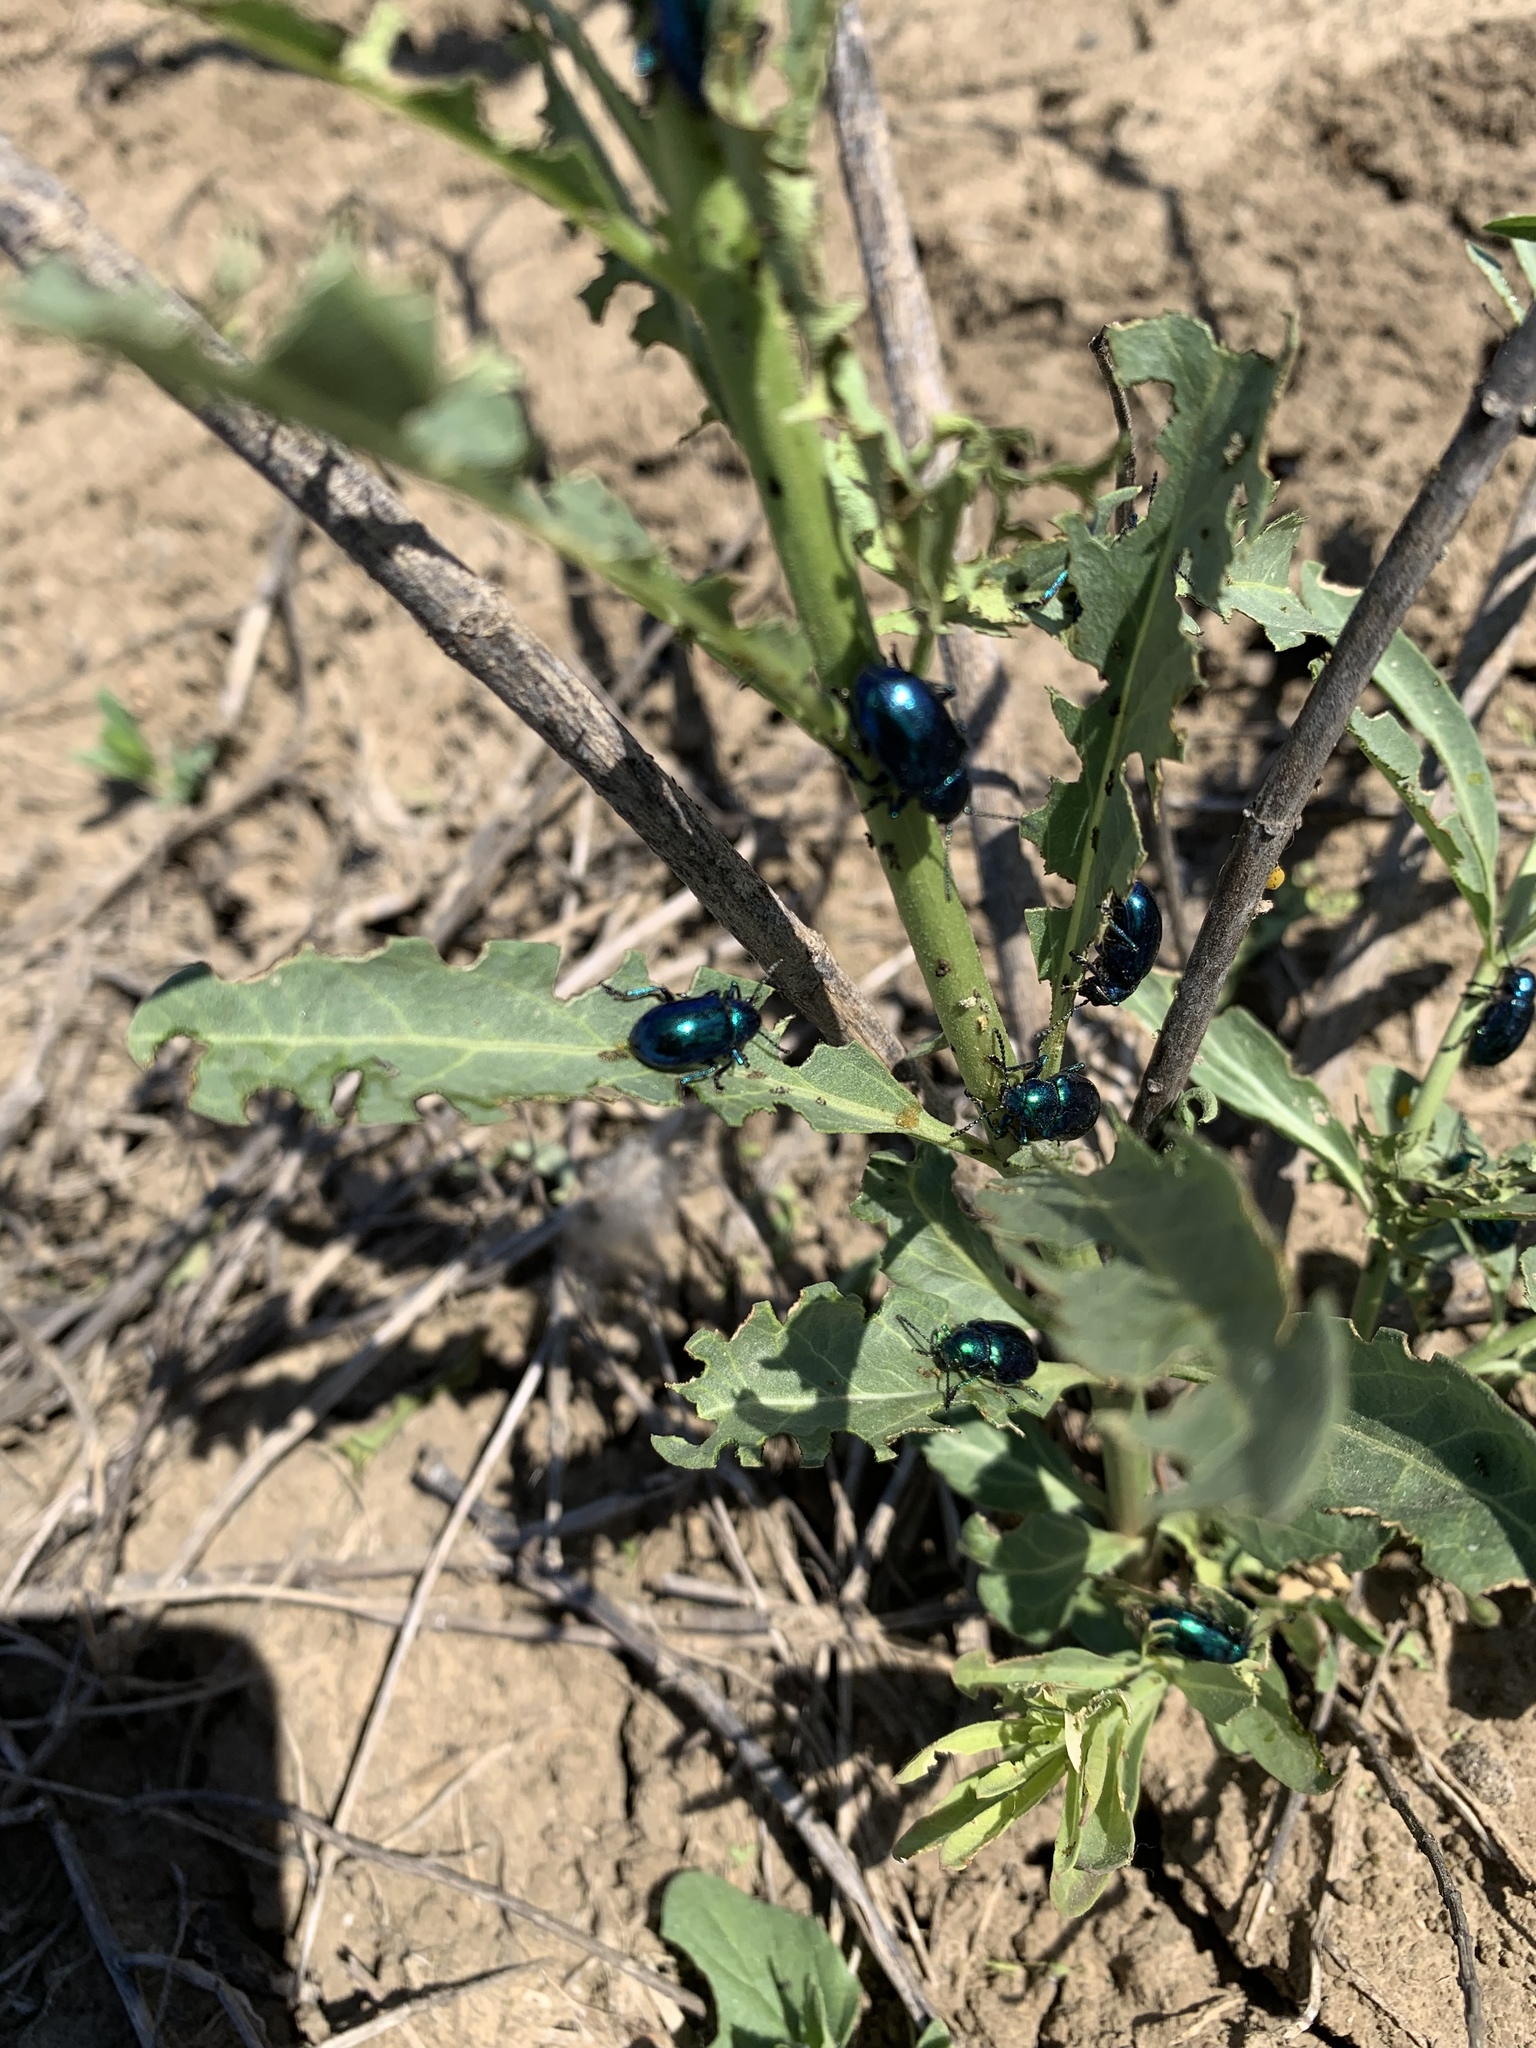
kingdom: Animalia
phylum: Arthropoda
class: Insecta
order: Coleoptera
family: Chrysomelidae
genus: Chrysochus
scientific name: Chrysochus cobaltinus
